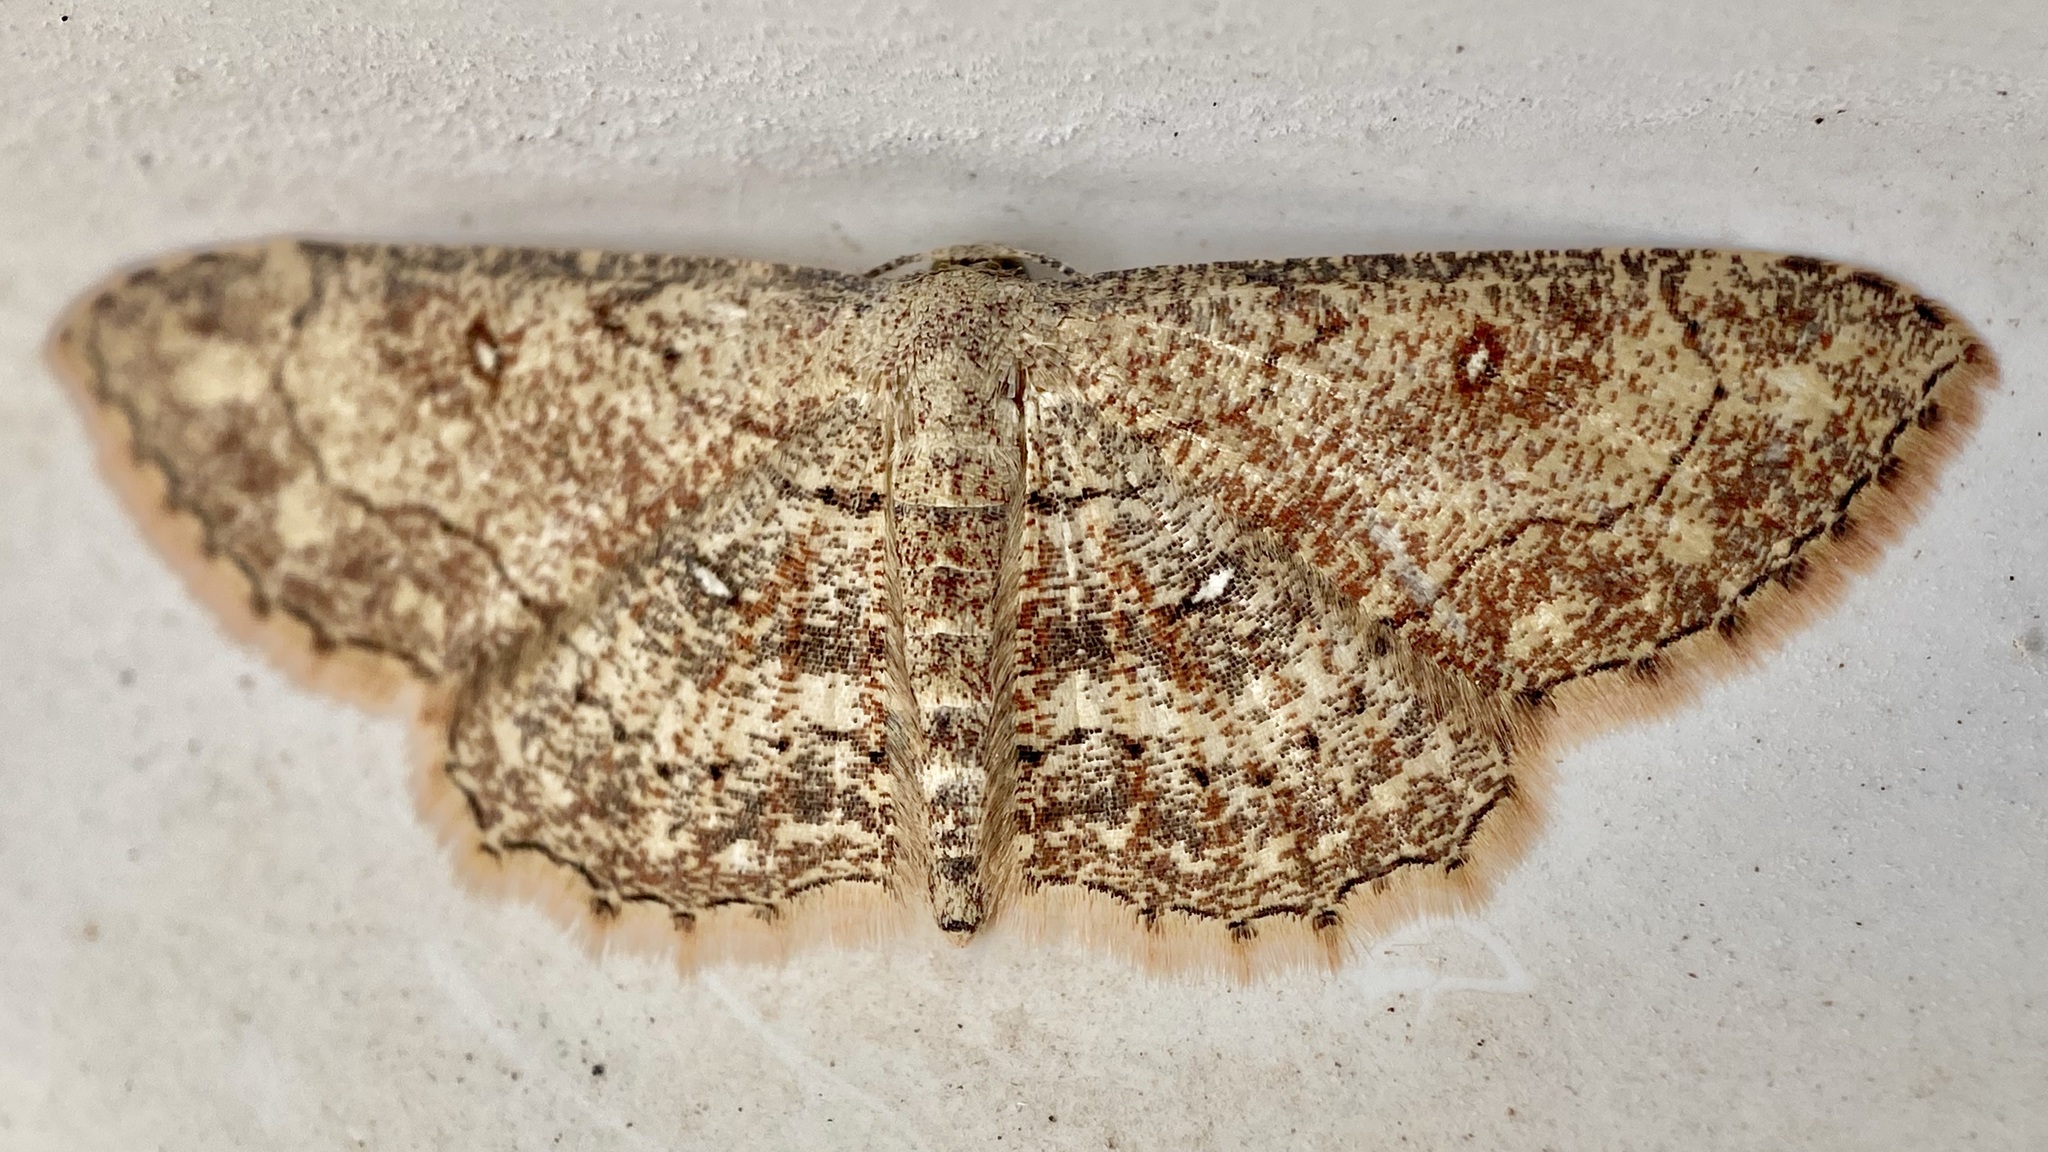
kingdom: Animalia
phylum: Arthropoda
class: Insecta
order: Lepidoptera
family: Geometridae
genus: Cyclophora
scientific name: Cyclophora nanaria
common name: Cankerworm
